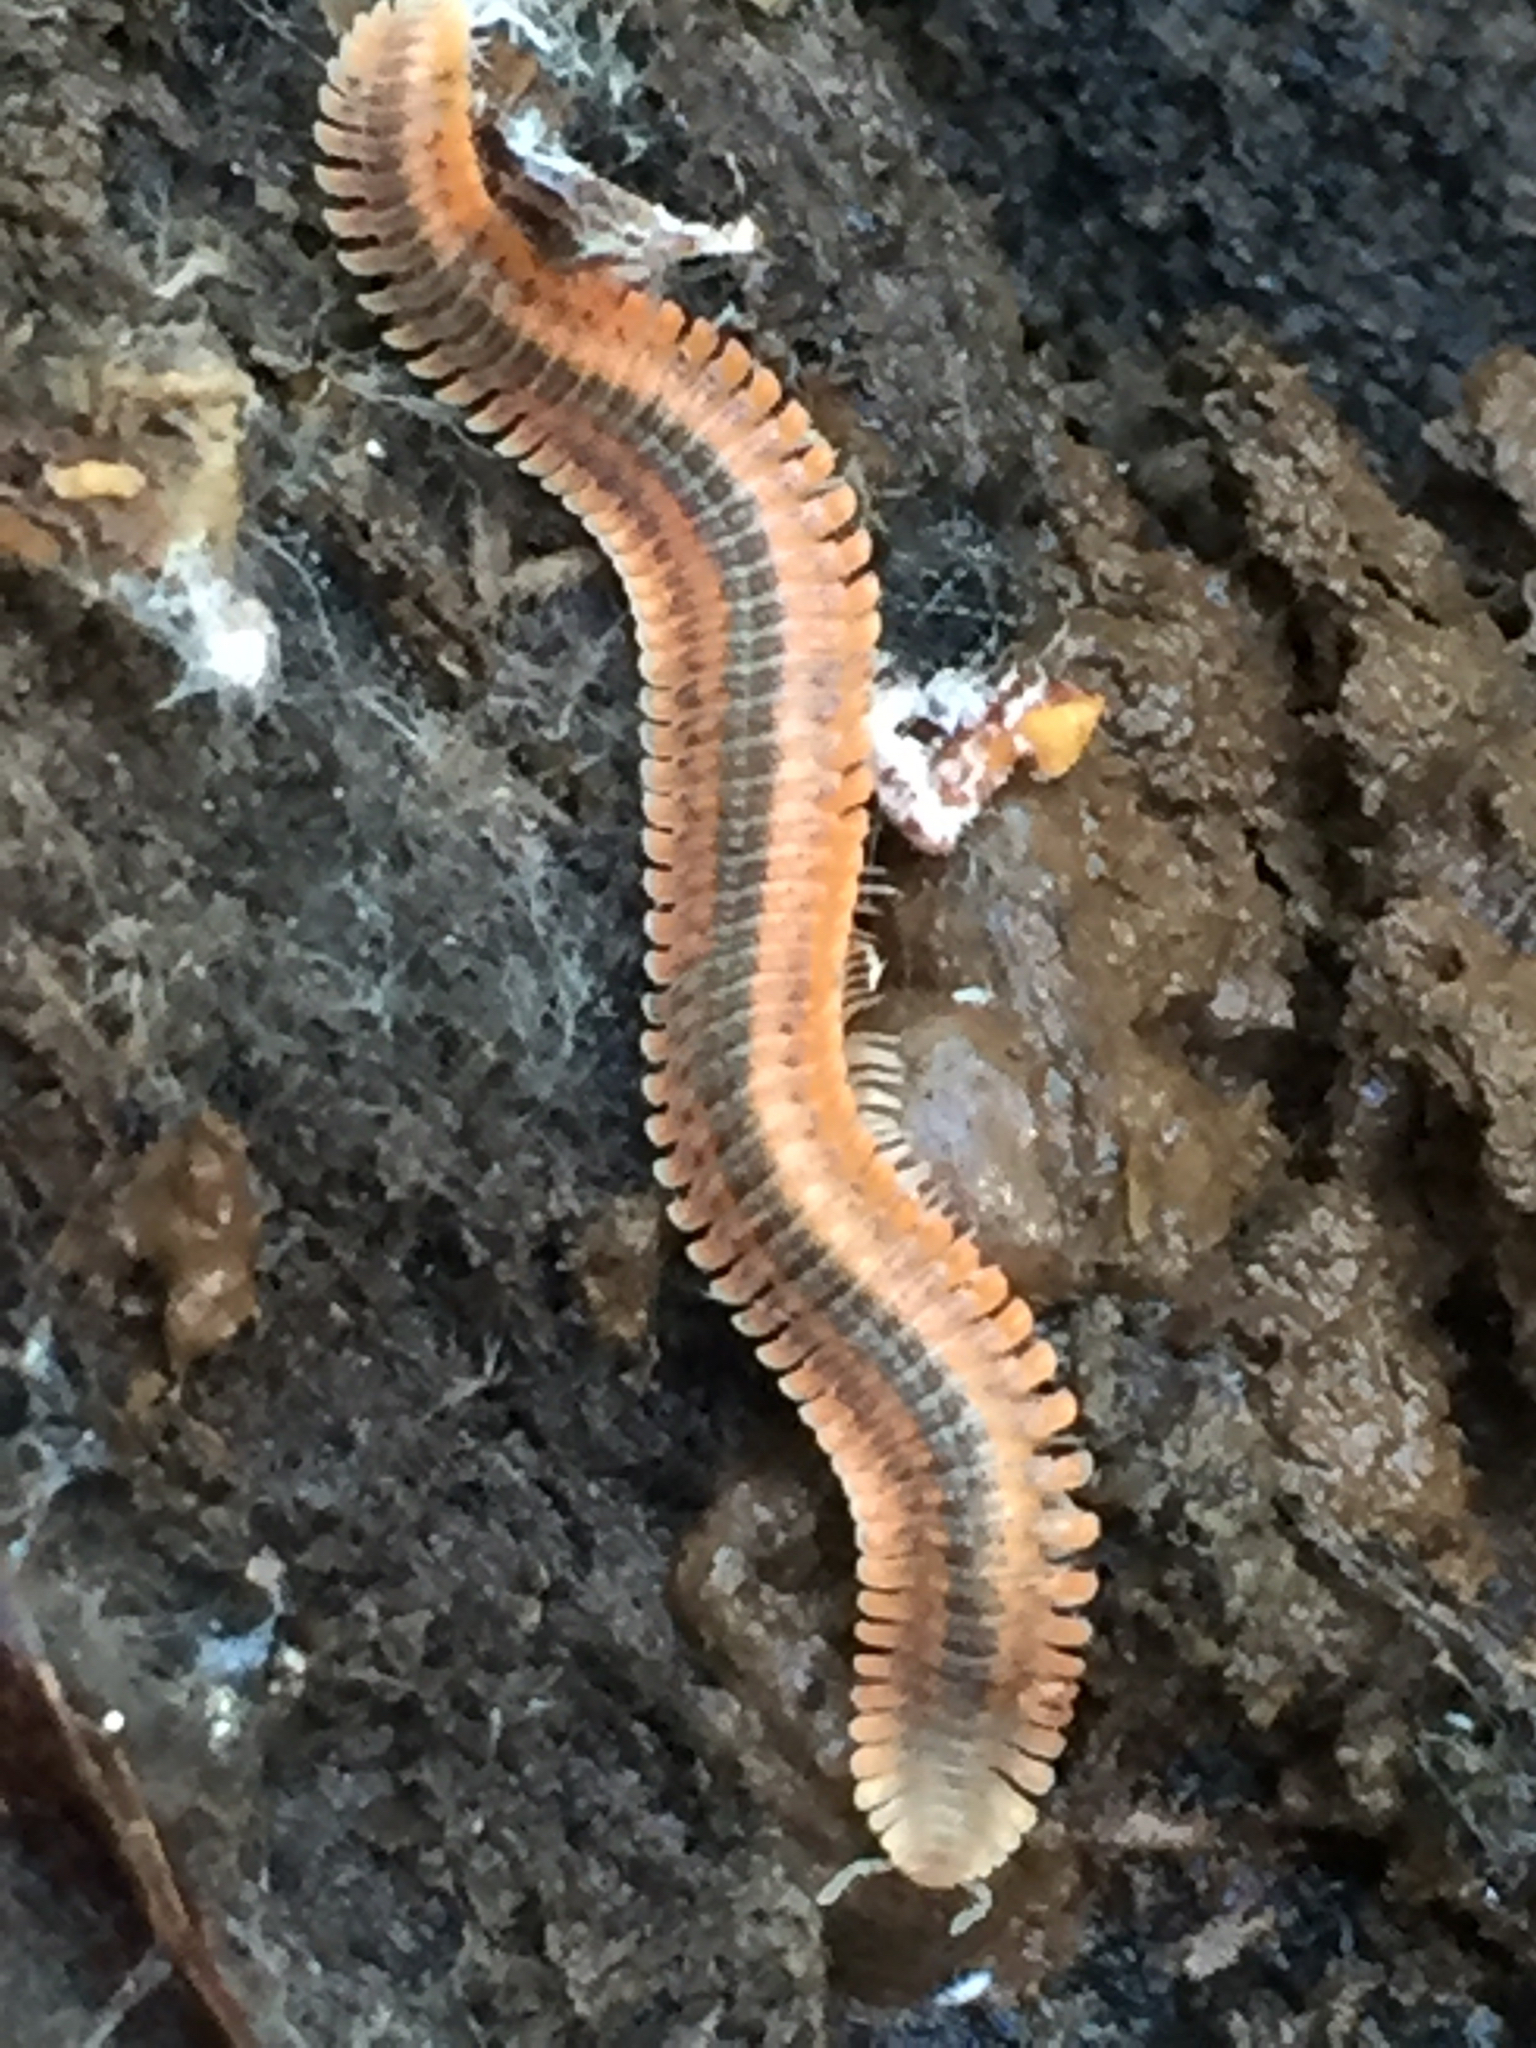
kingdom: Animalia
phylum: Arthropoda
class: Diplopoda
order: Platydesmida
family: Andrognathidae
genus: Brachycybe
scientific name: Brachycybe producta
